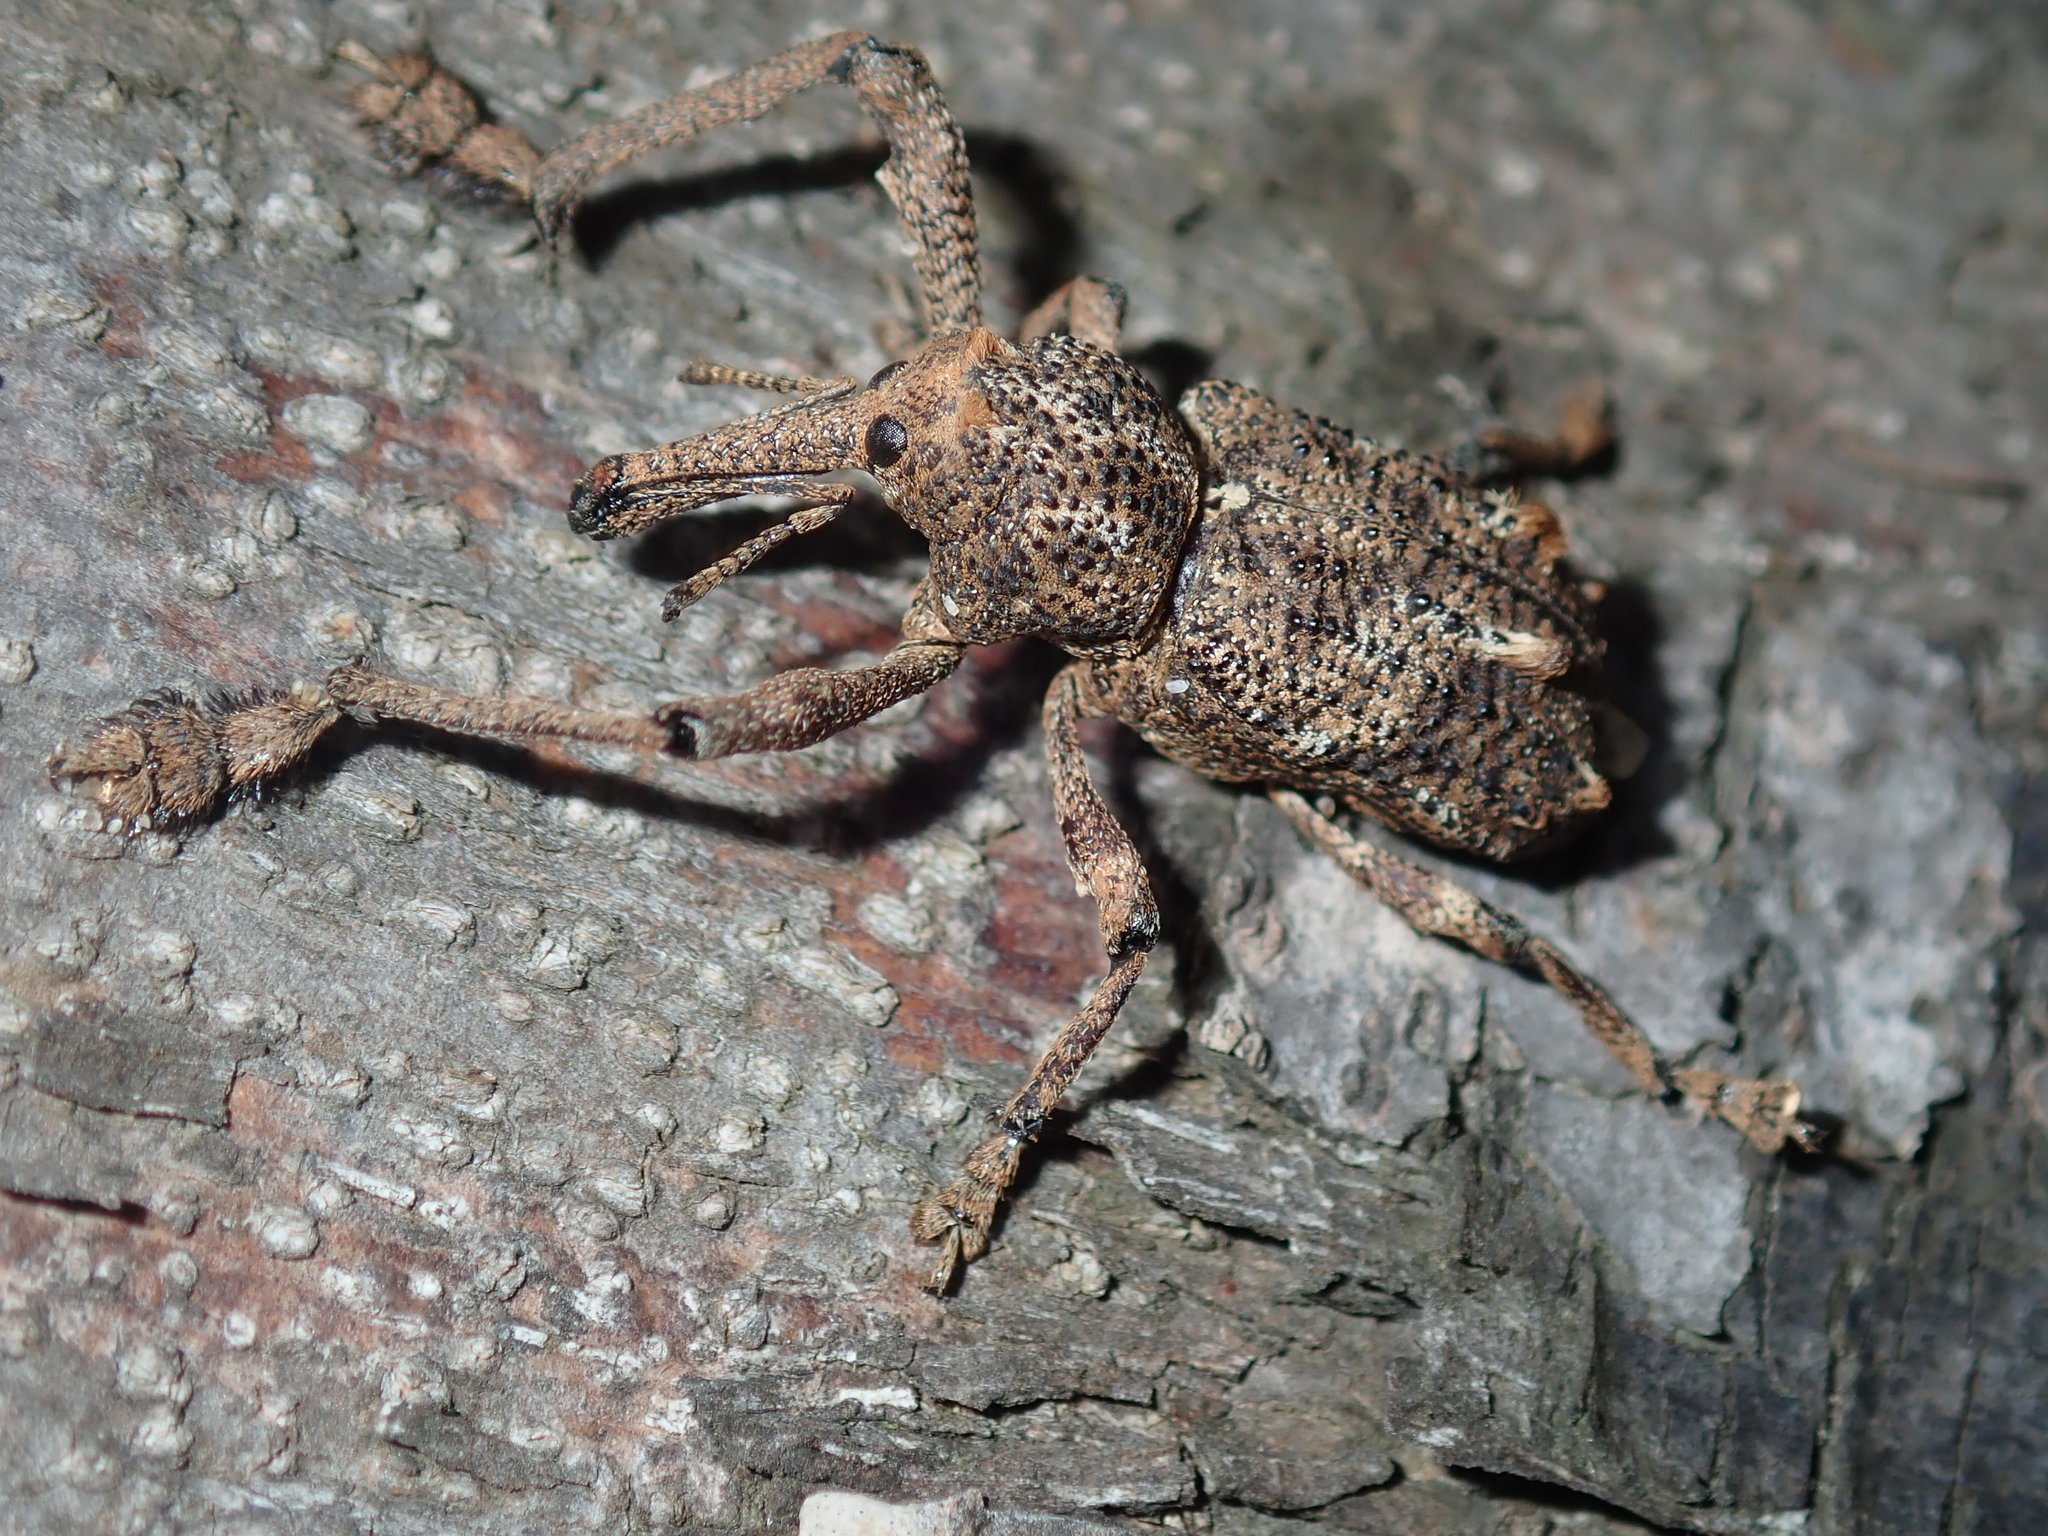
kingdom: Animalia
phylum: Arthropoda
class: Insecta
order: Coleoptera
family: Curculionidae
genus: Orthorhinus
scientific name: Orthorhinus cylindrirostris
